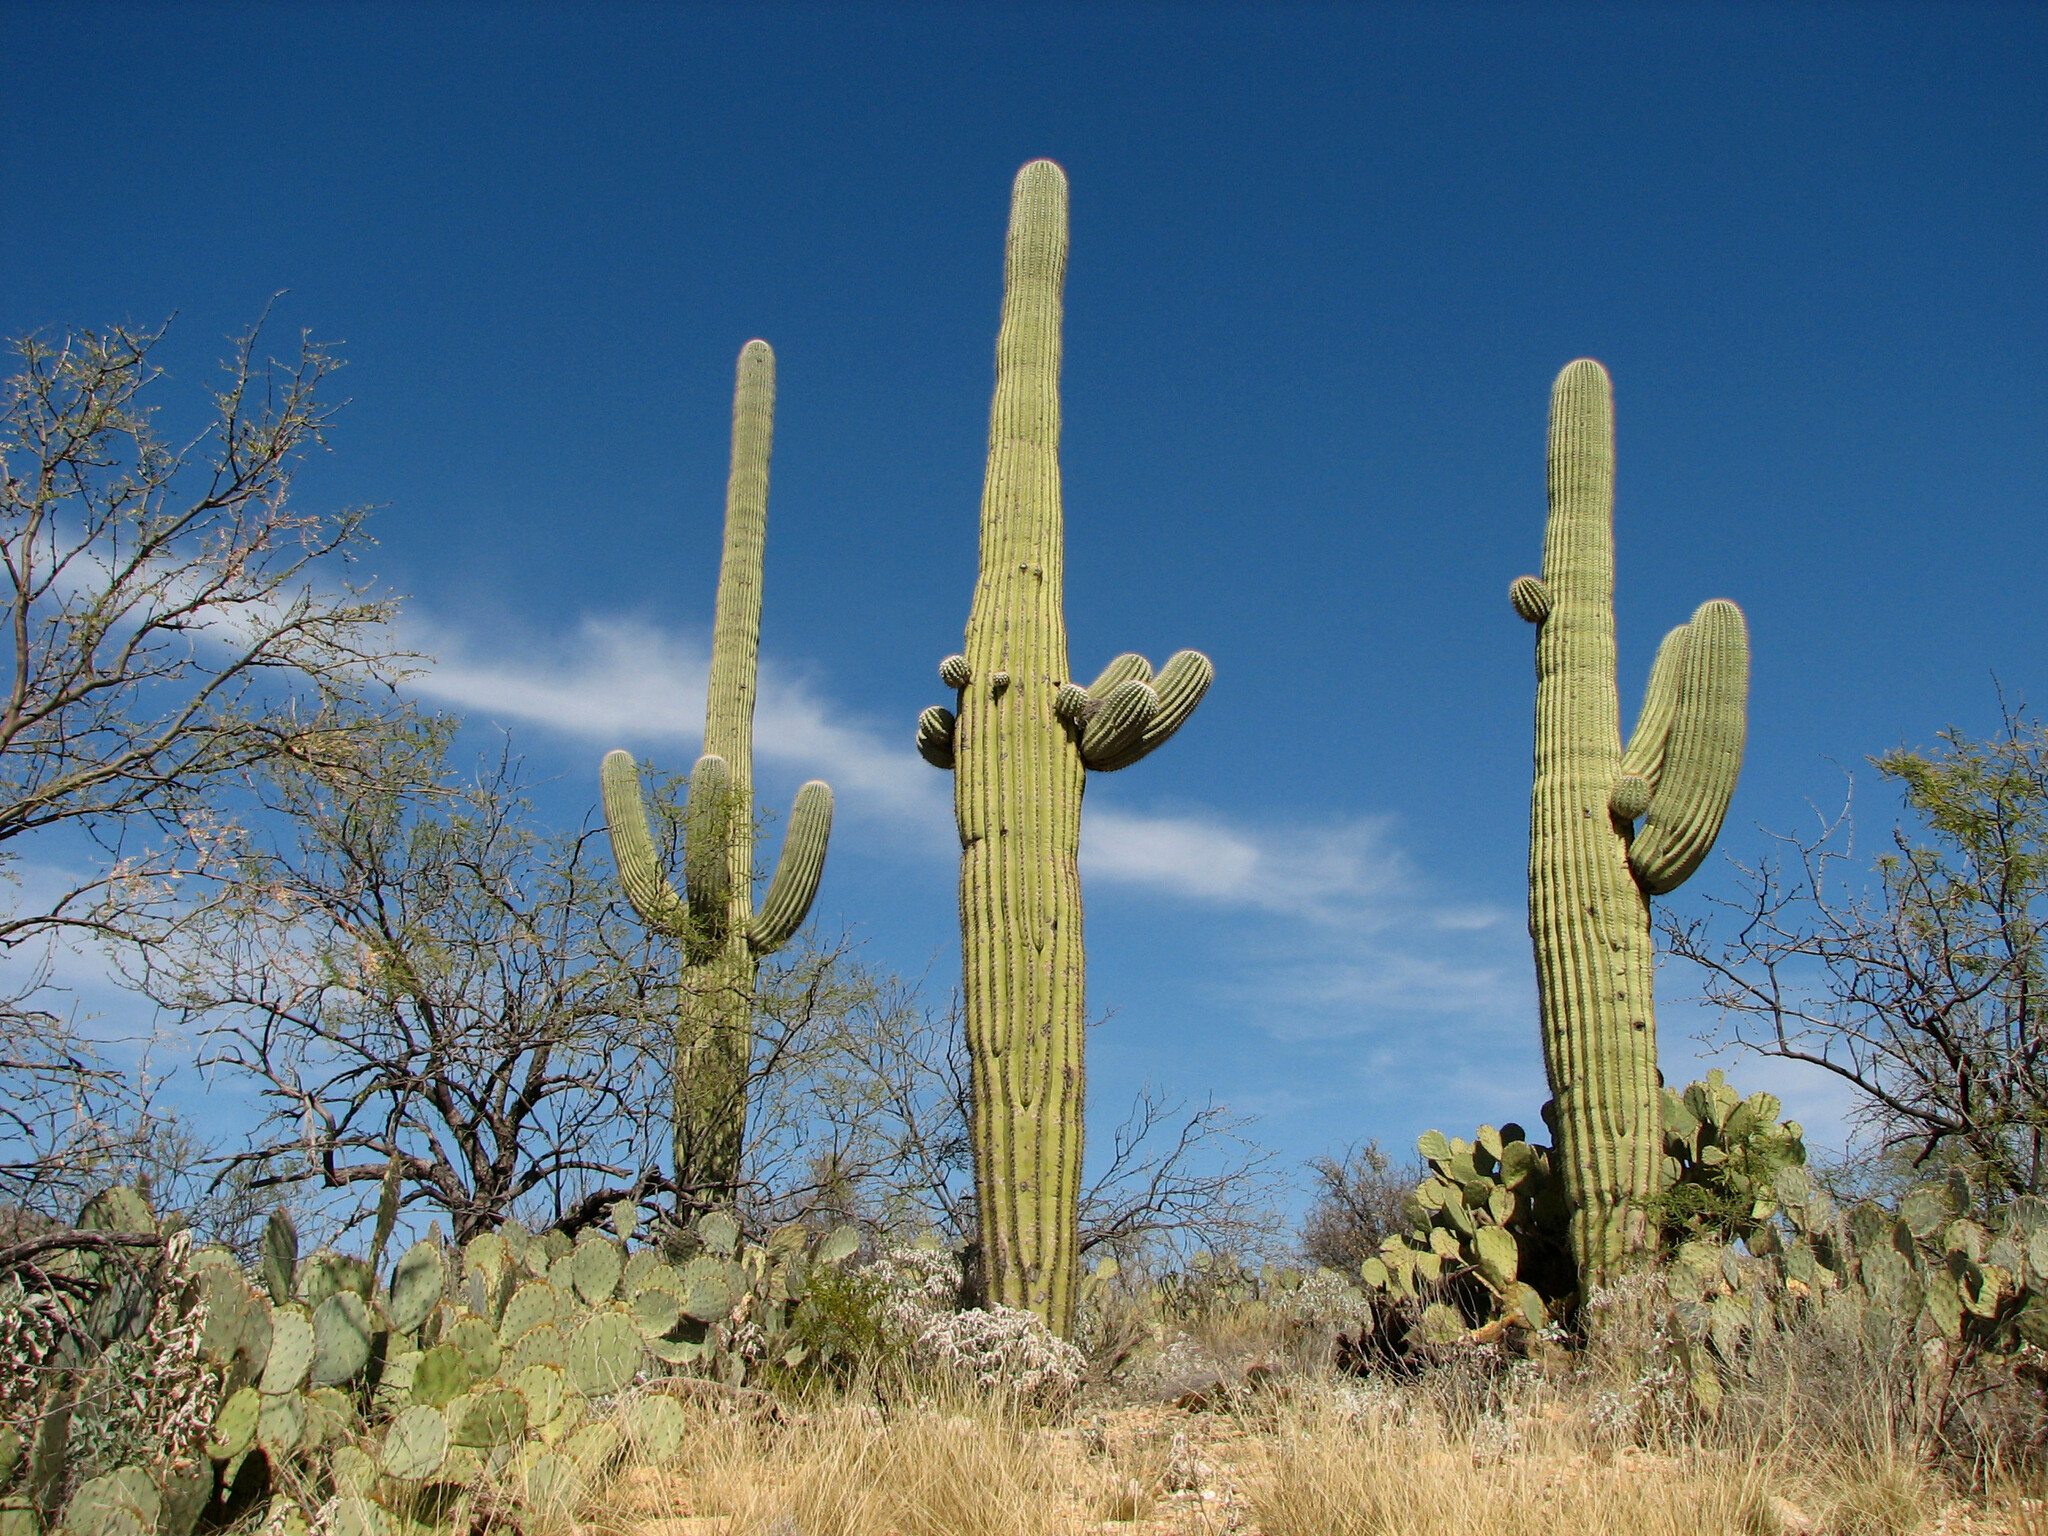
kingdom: Plantae
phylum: Tracheophyta
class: Magnoliopsida
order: Caryophyllales
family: Cactaceae
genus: Carnegiea
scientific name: Carnegiea gigantea
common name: Saguaro
